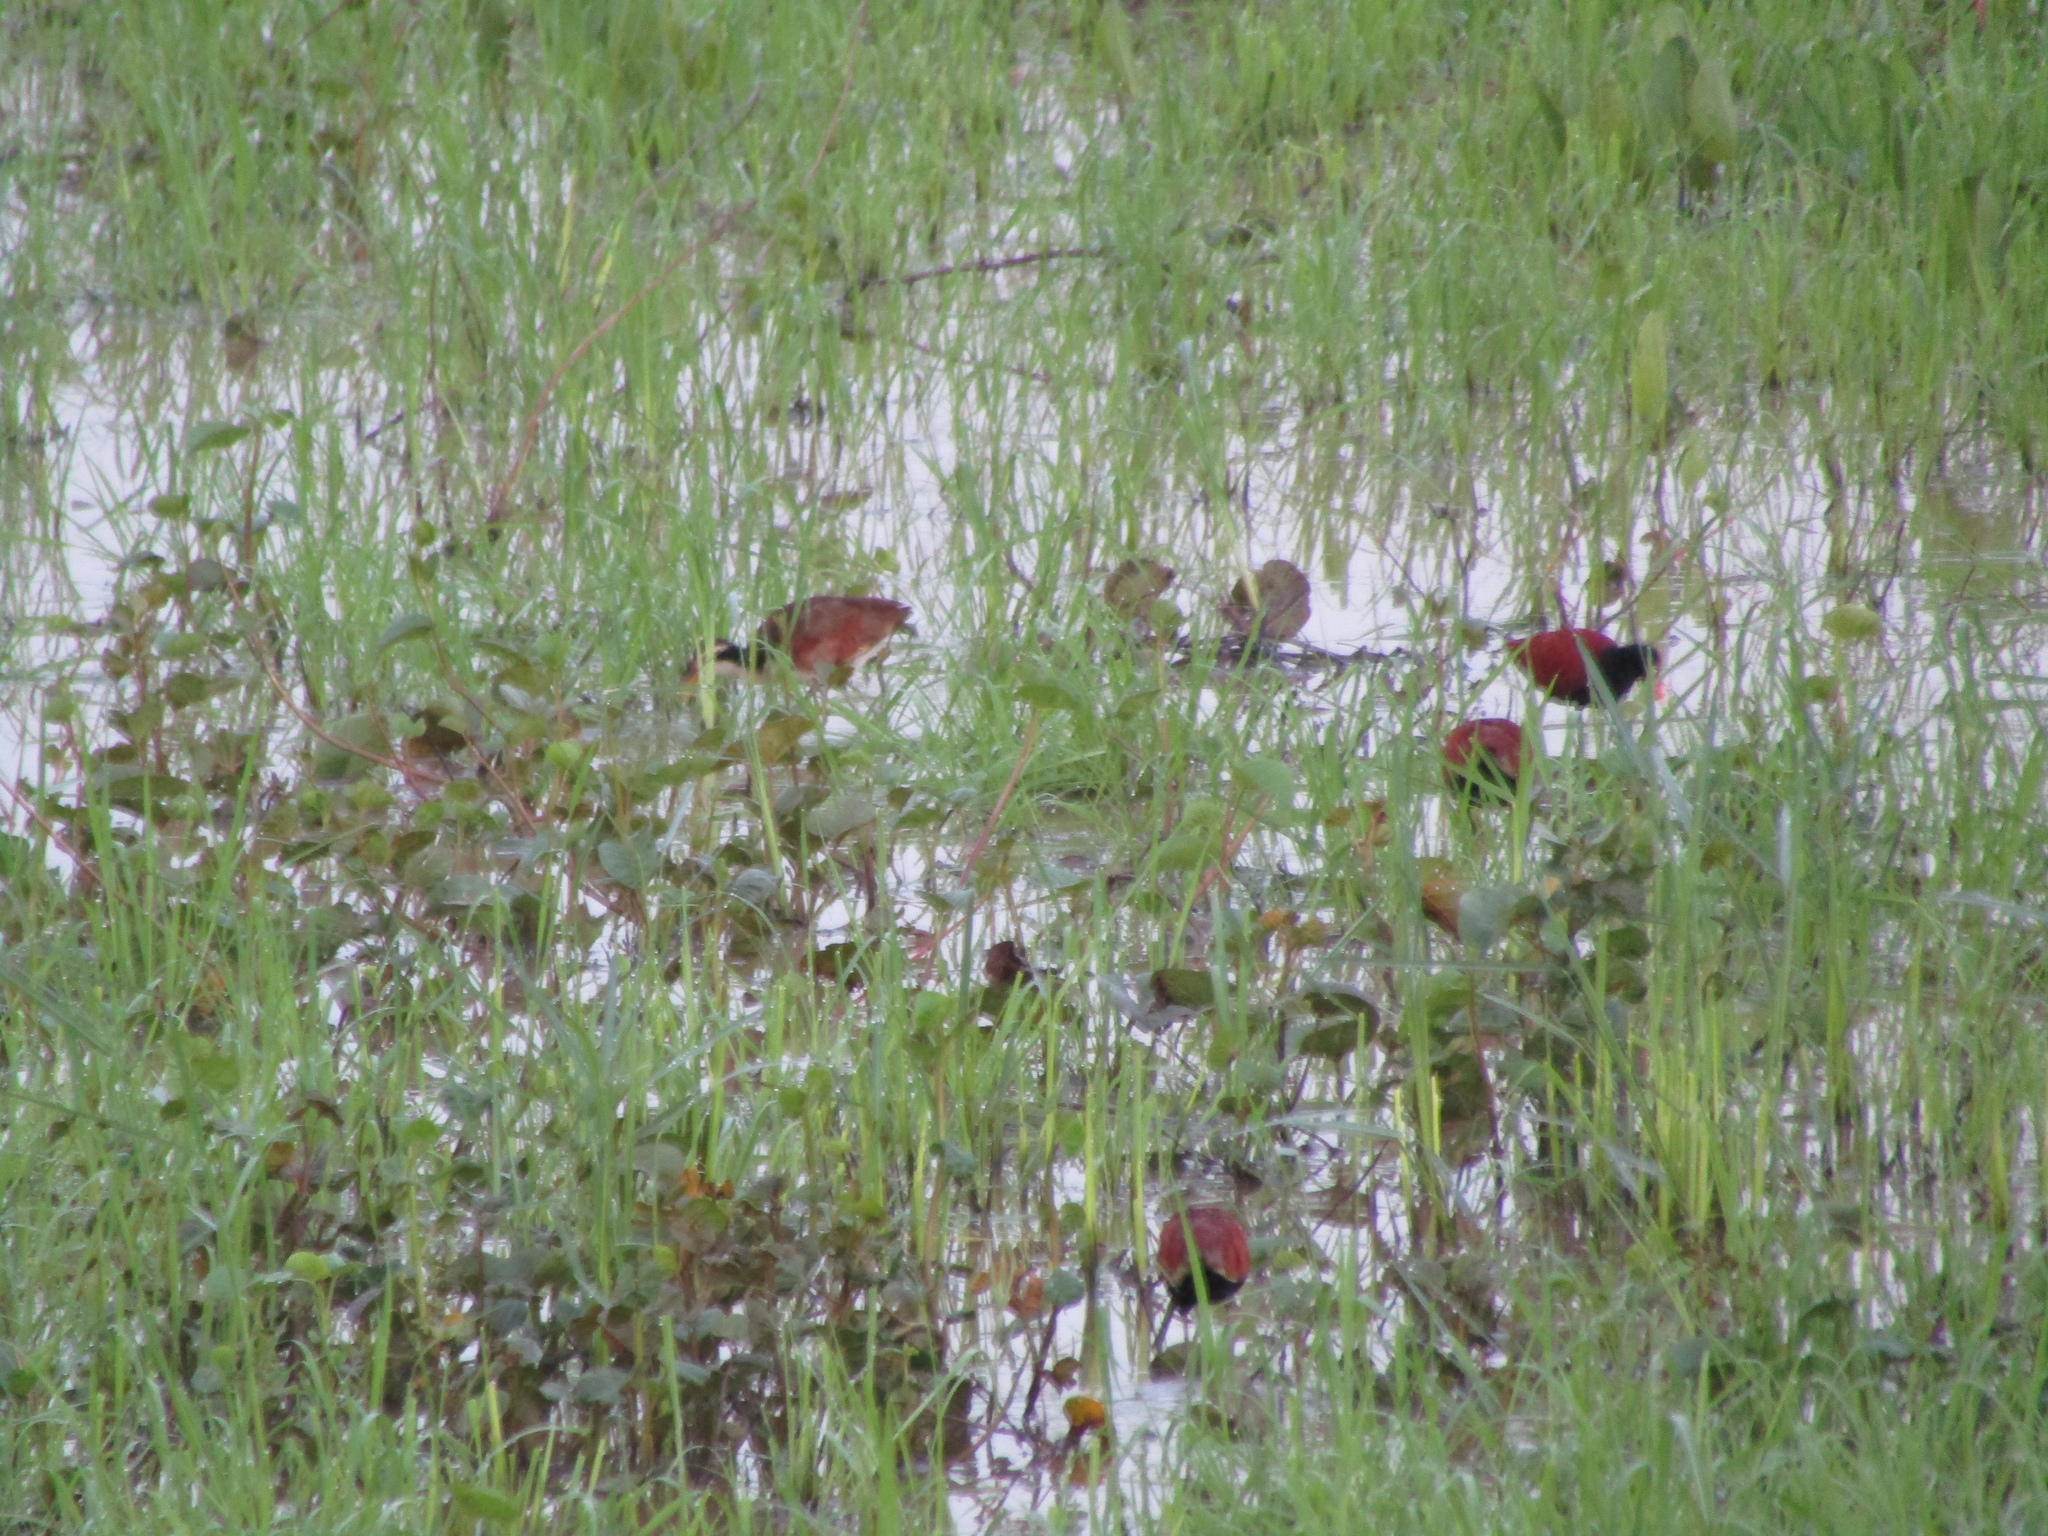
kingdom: Animalia
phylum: Chordata
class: Aves
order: Charadriiformes
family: Jacanidae
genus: Jacana
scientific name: Jacana jacana
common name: Wattled jacana
